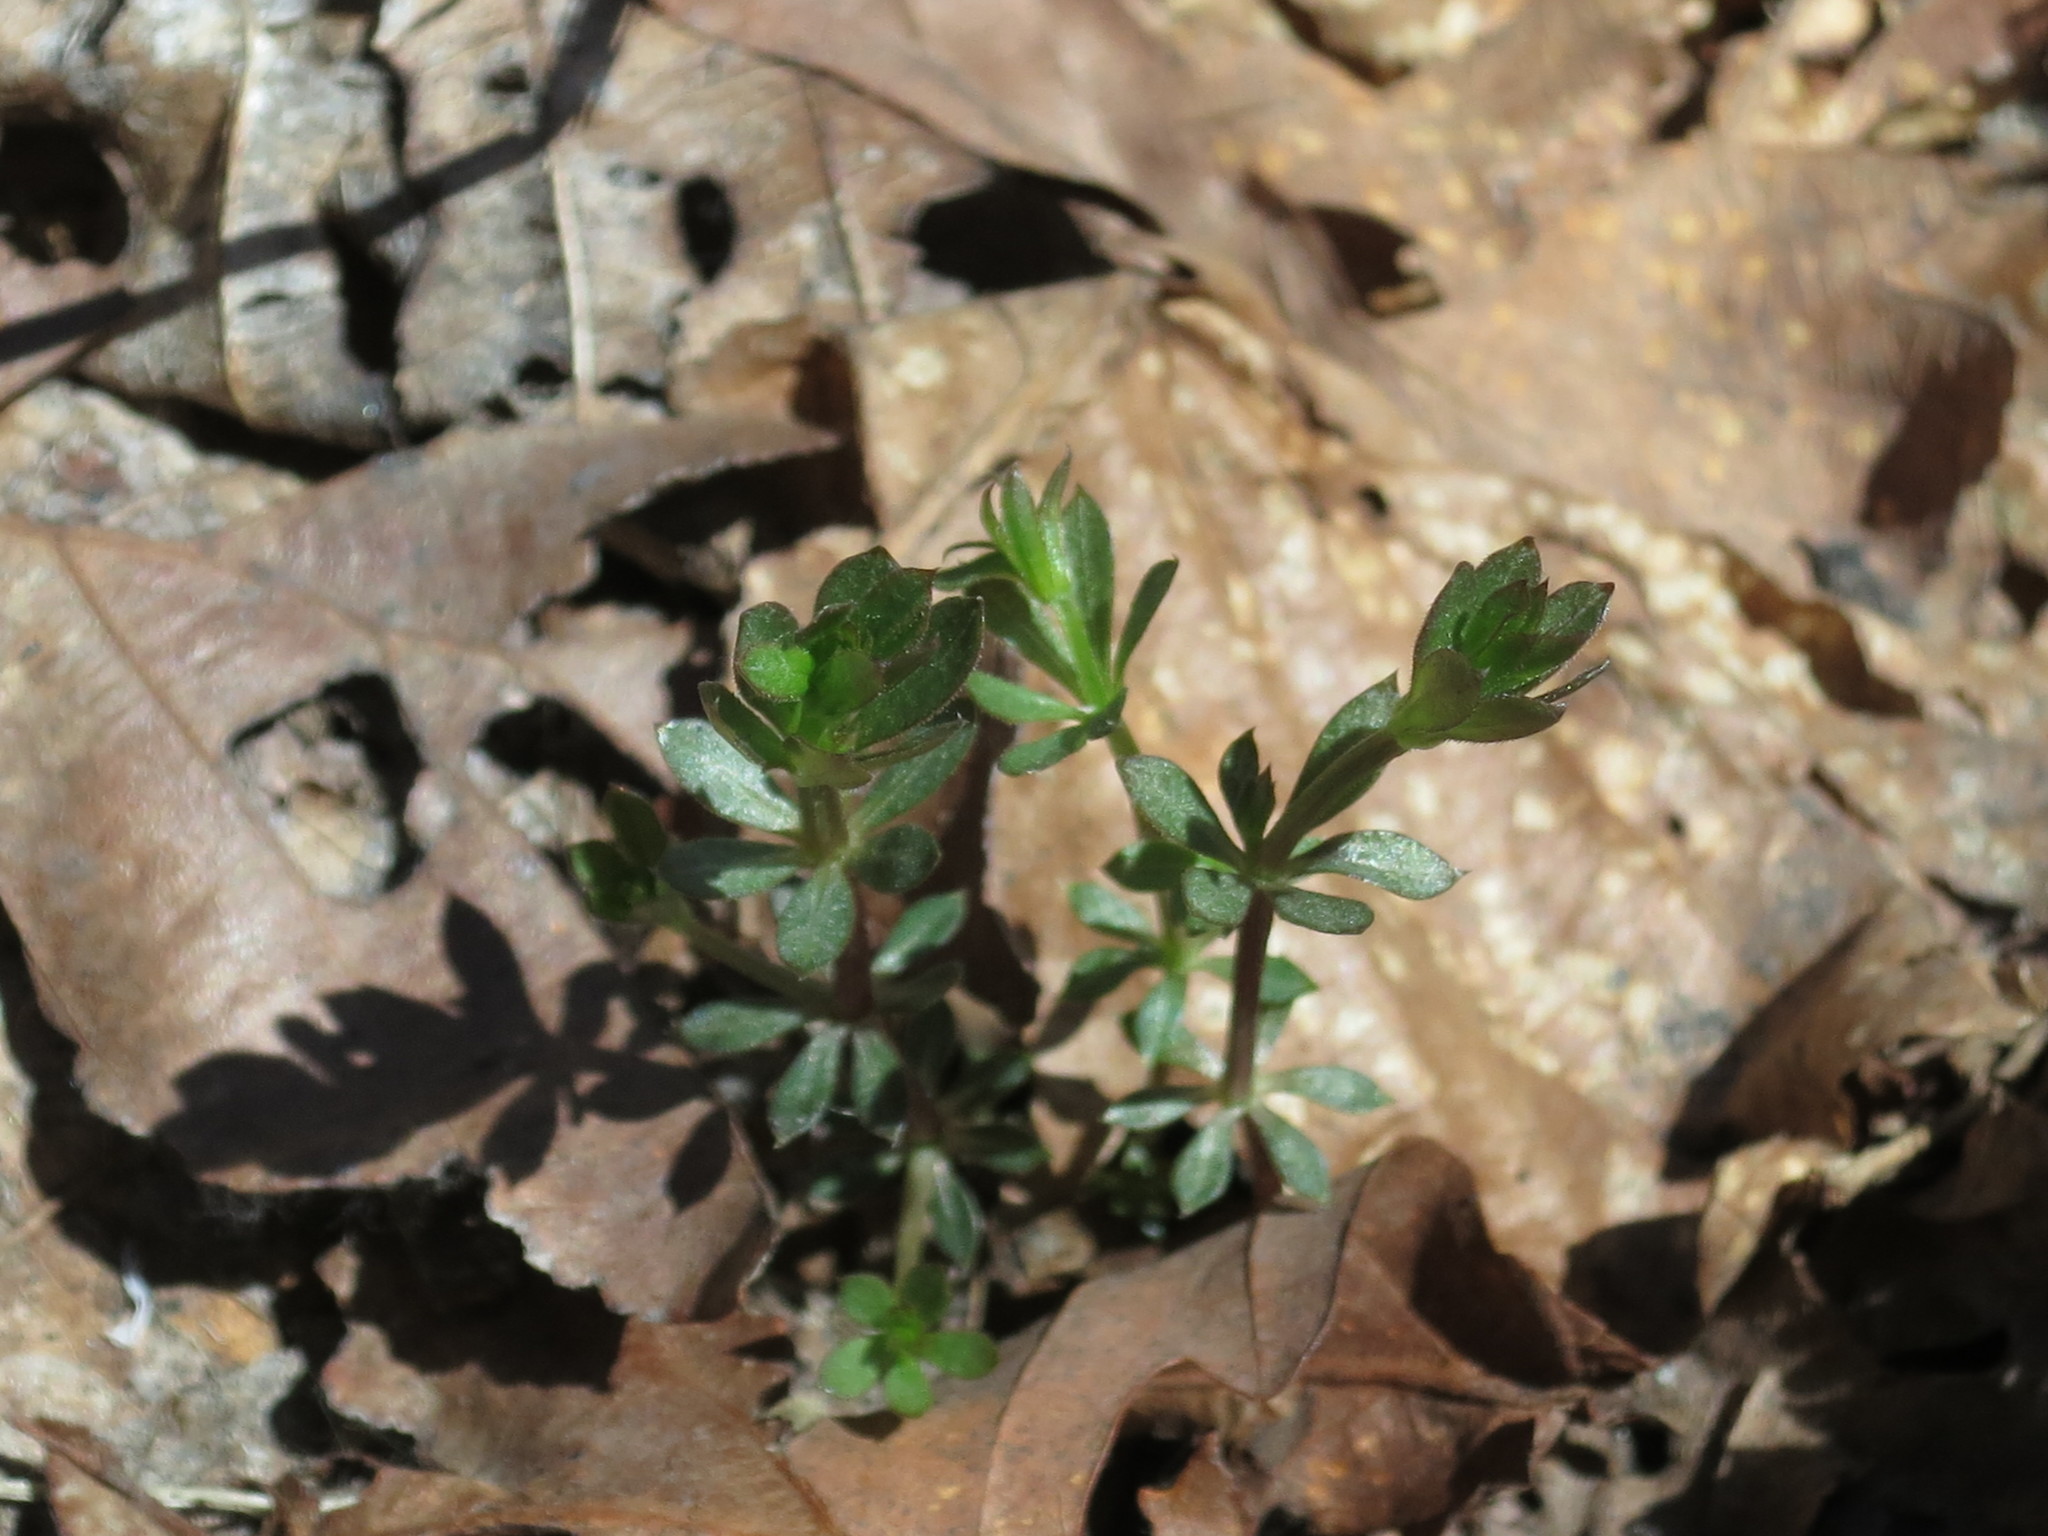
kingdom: Plantae
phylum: Tracheophyta
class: Magnoliopsida
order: Gentianales
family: Rubiaceae
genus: Galium
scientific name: Galium dahuricum
